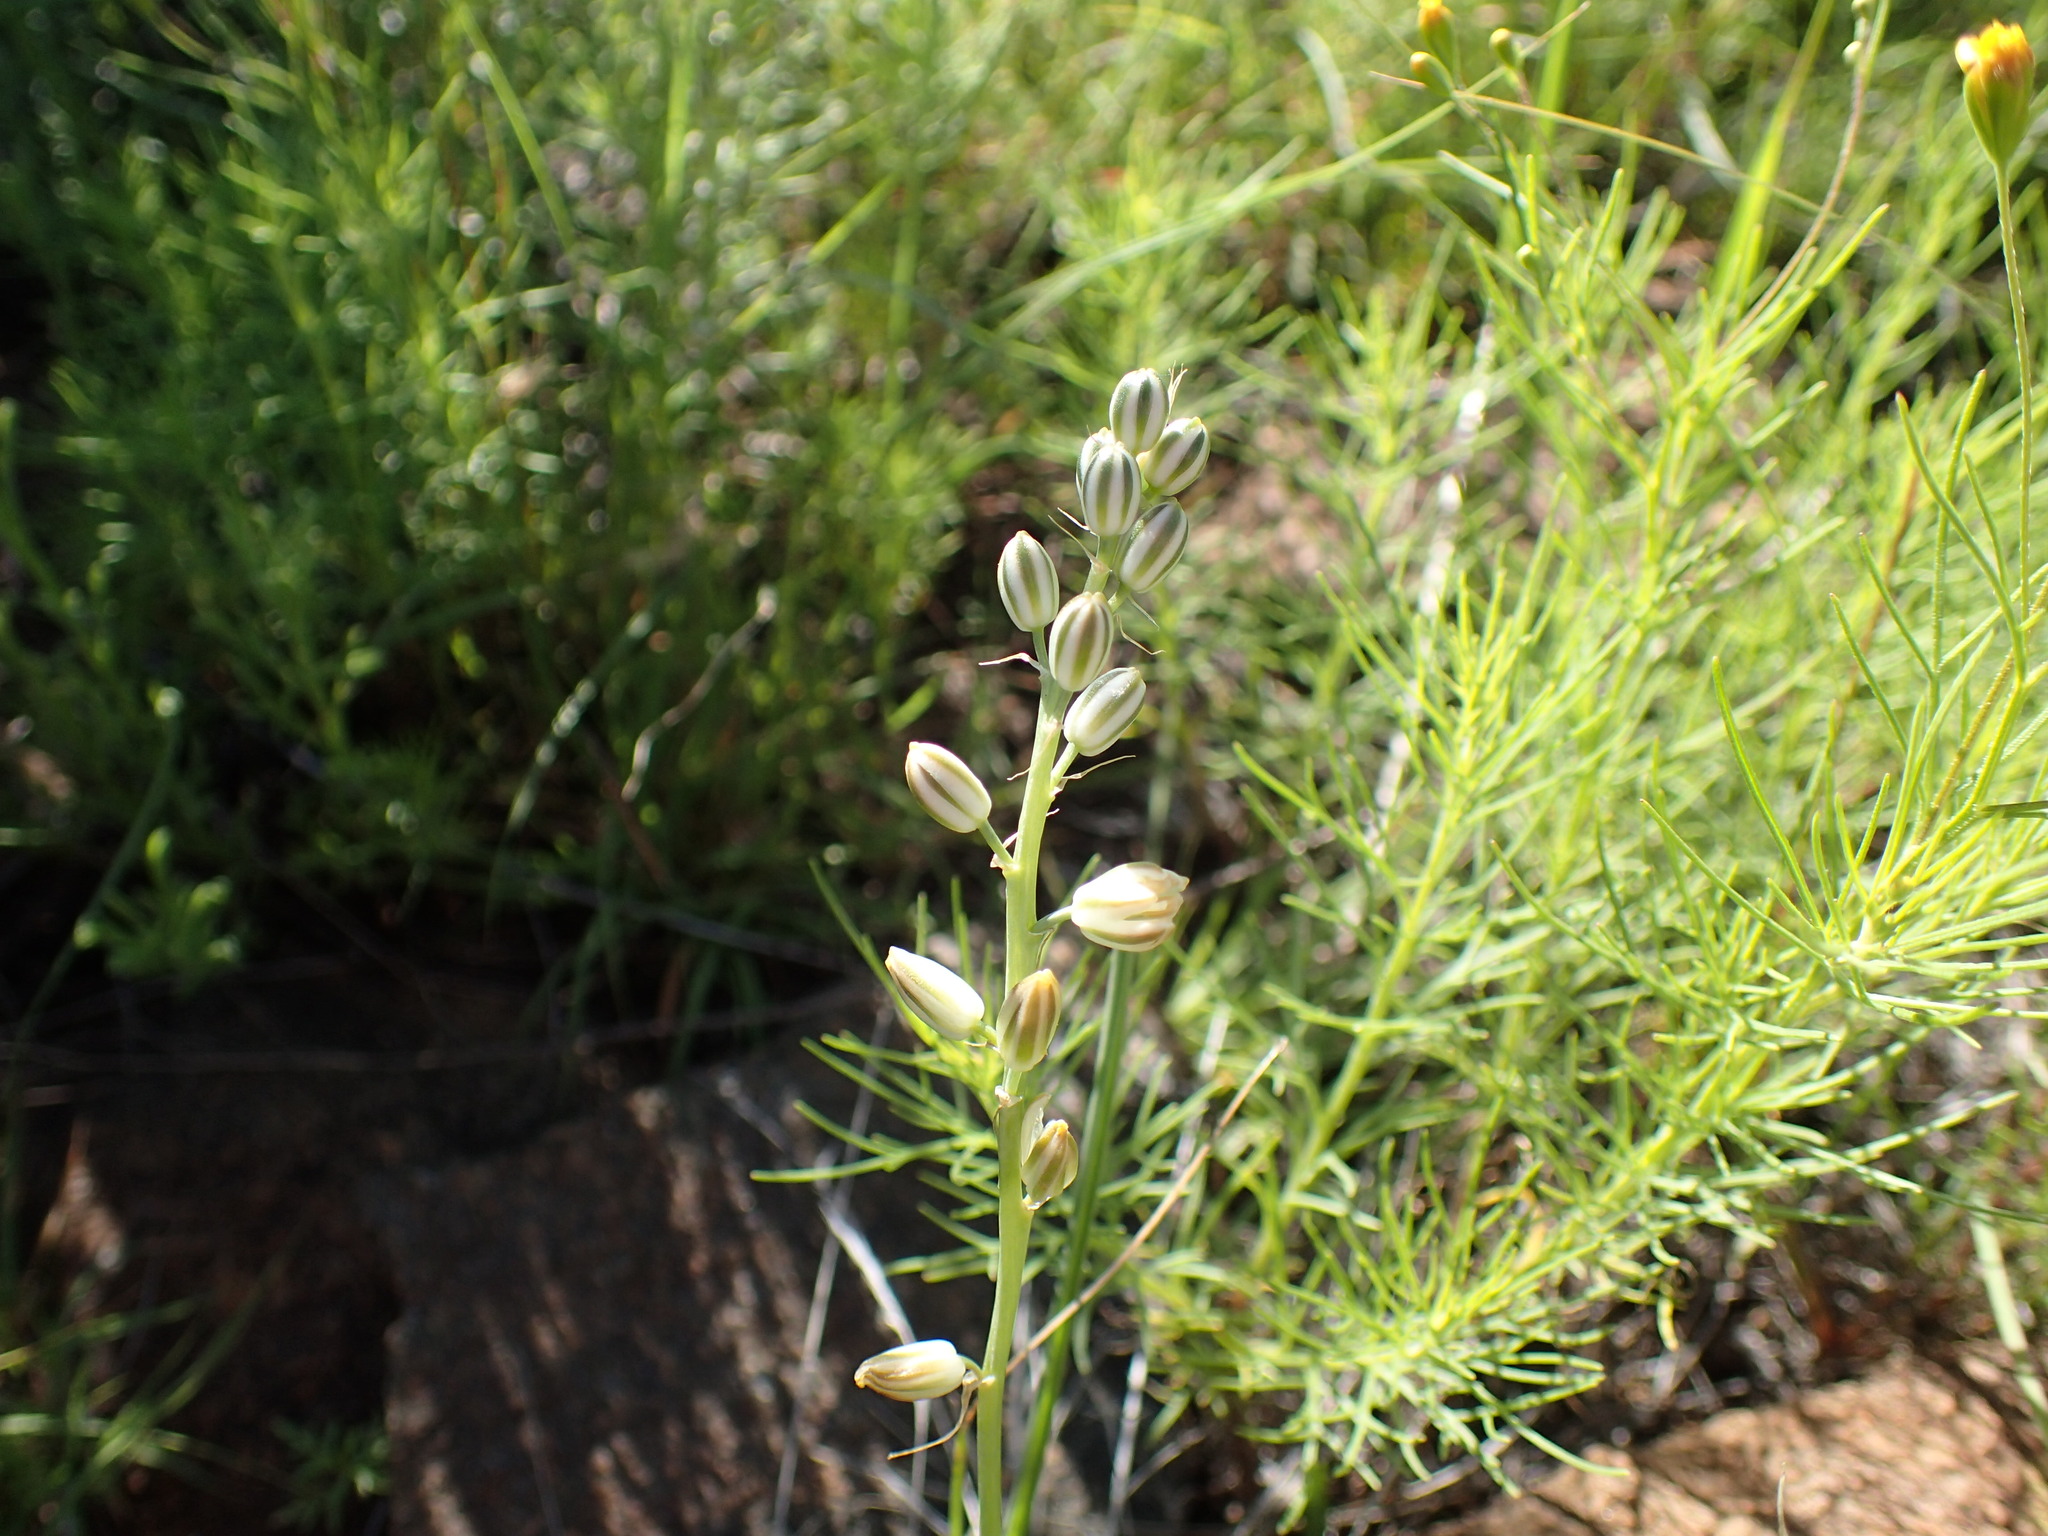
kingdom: Plantae
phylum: Tracheophyta
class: Liliopsida
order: Asparagales
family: Asparagaceae
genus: Ornithogalum
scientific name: Ornithogalum graminifolium
